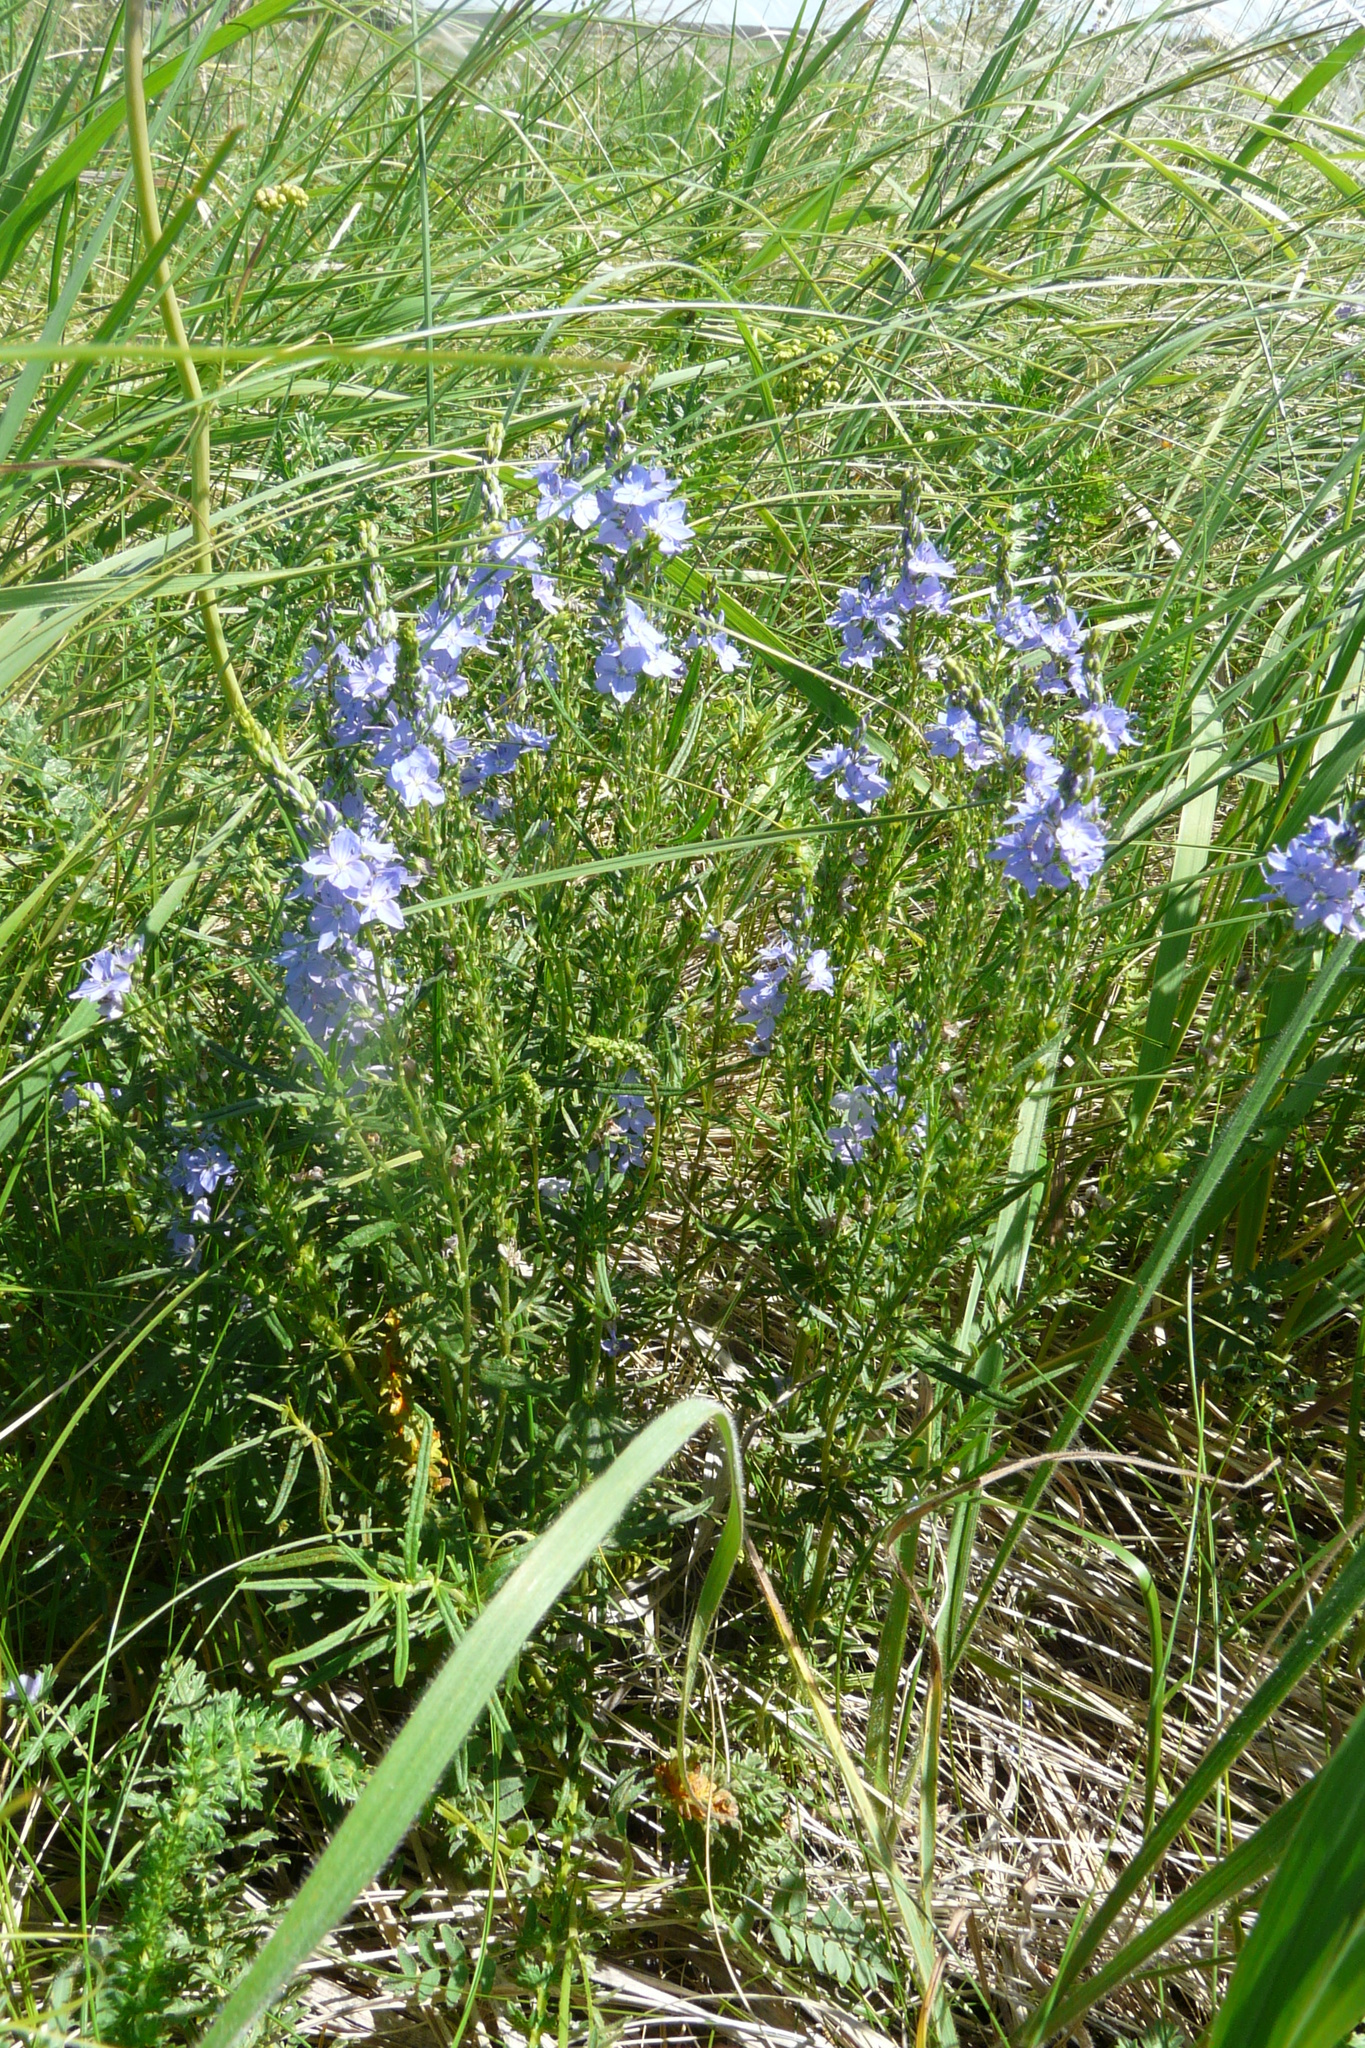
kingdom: Plantae
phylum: Tracheophyta
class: Magnoliopsida
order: Lamiales
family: Plantaginaceae
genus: Veronica
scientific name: Veronica austriaca
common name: Large speedwell
